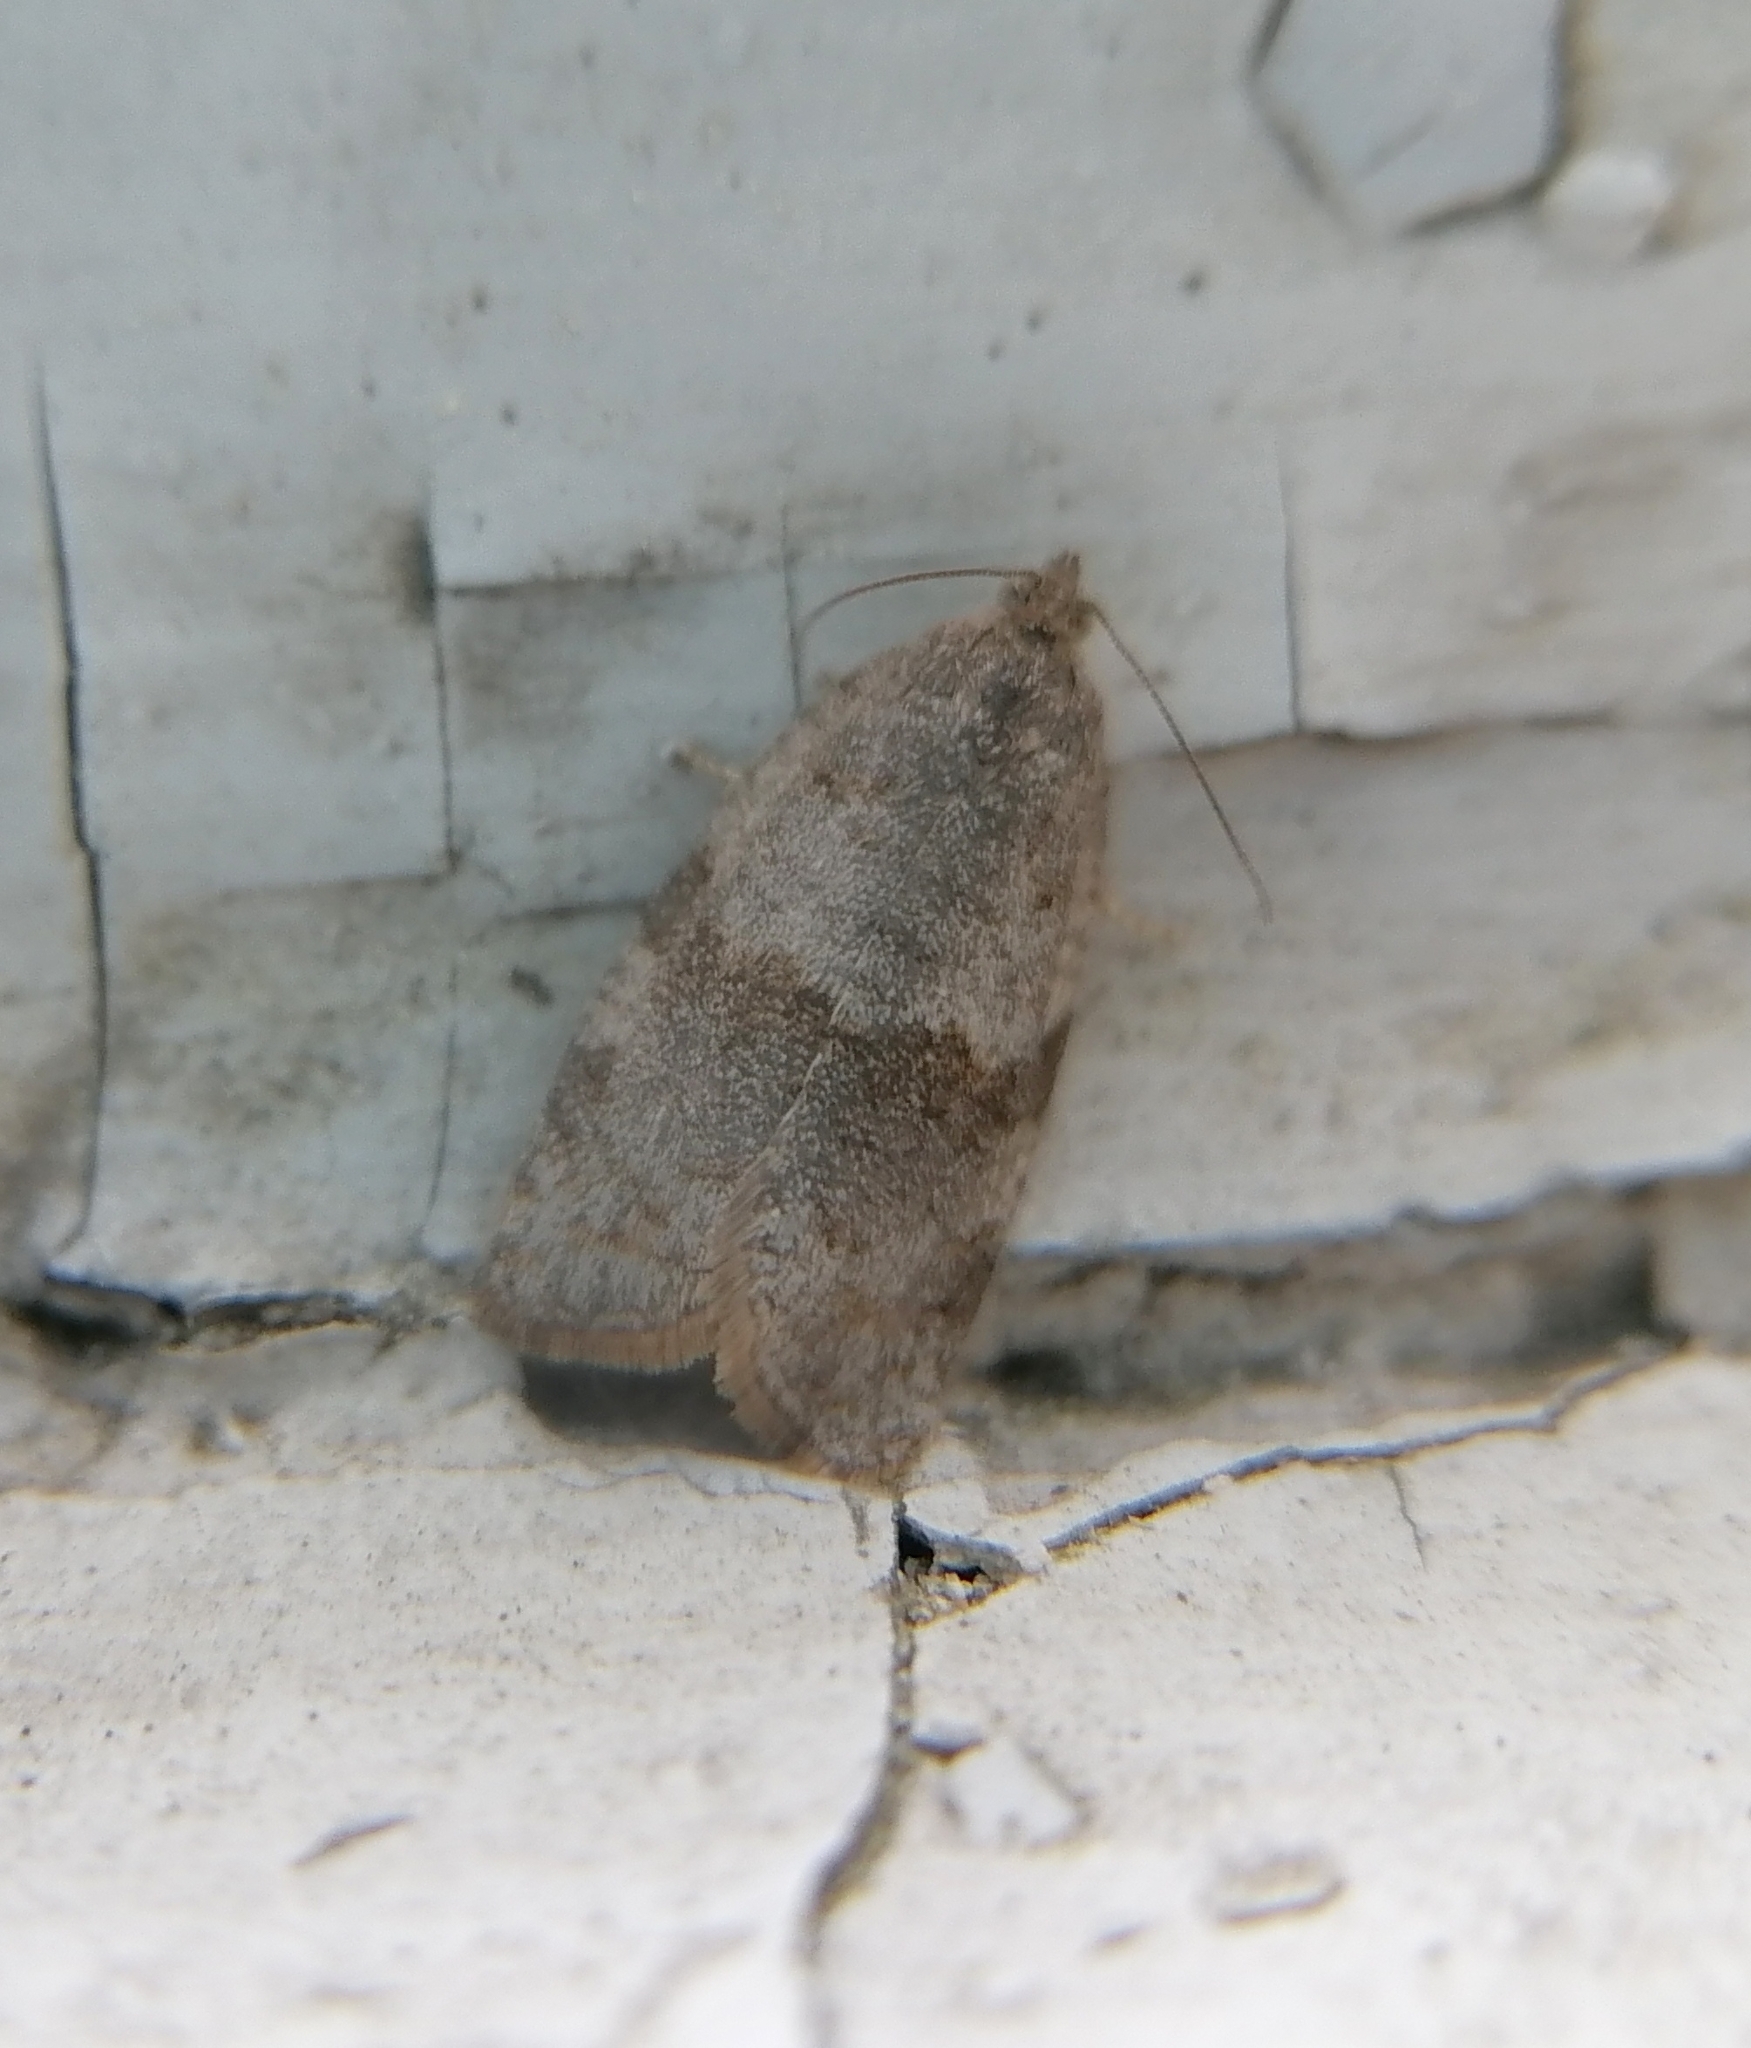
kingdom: Animalia
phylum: Arthropoda
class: Insecta
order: Lepidoptera
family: Tortricidae
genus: Syndemis
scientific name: Syndemis musculana
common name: Dark-barred twist
